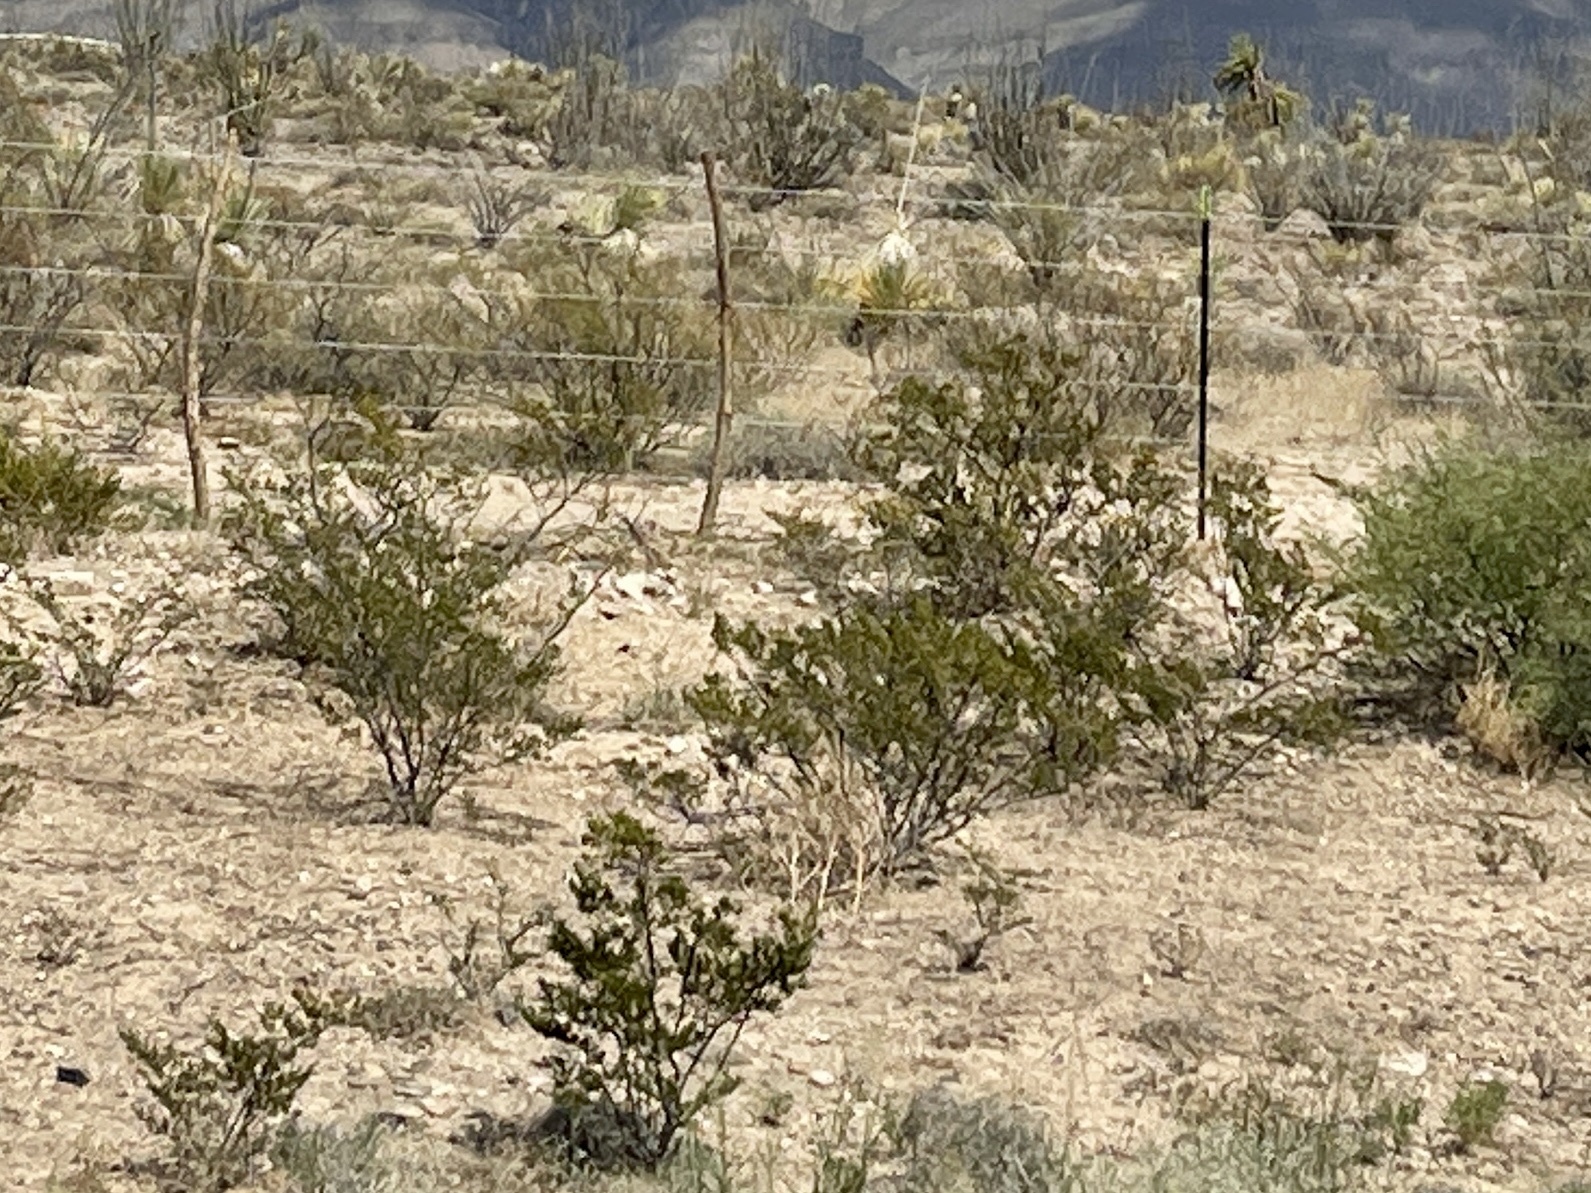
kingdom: Plantae
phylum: Tracheophyta
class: Magnoliopsida
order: Zygophyllales
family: Zygophyllaceae
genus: Larrea
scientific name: Larrea tridentata
